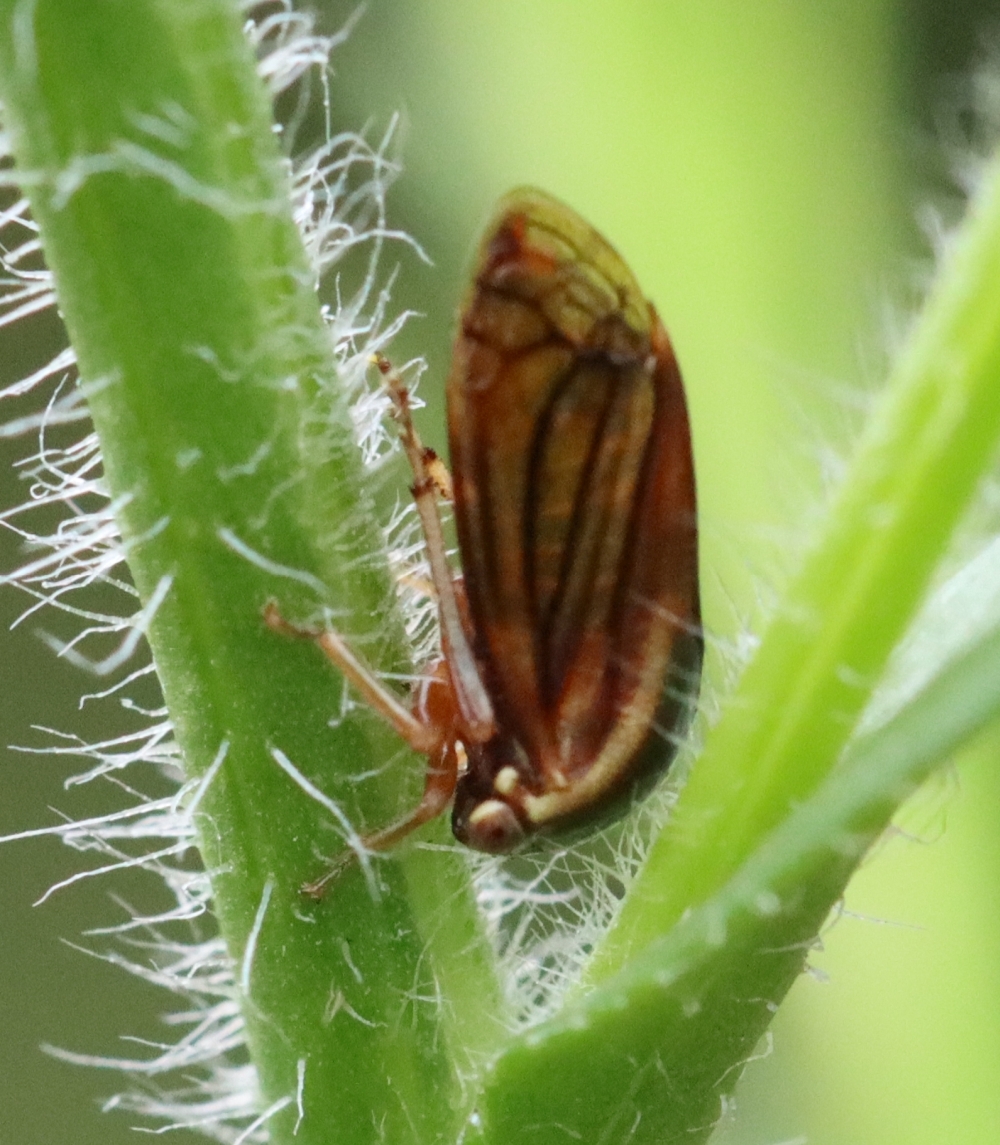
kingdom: Animalia
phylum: Arthropoda
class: Insecta
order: Hemiptera
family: Membracidae
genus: Acutalis
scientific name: Acutalis tartarea
